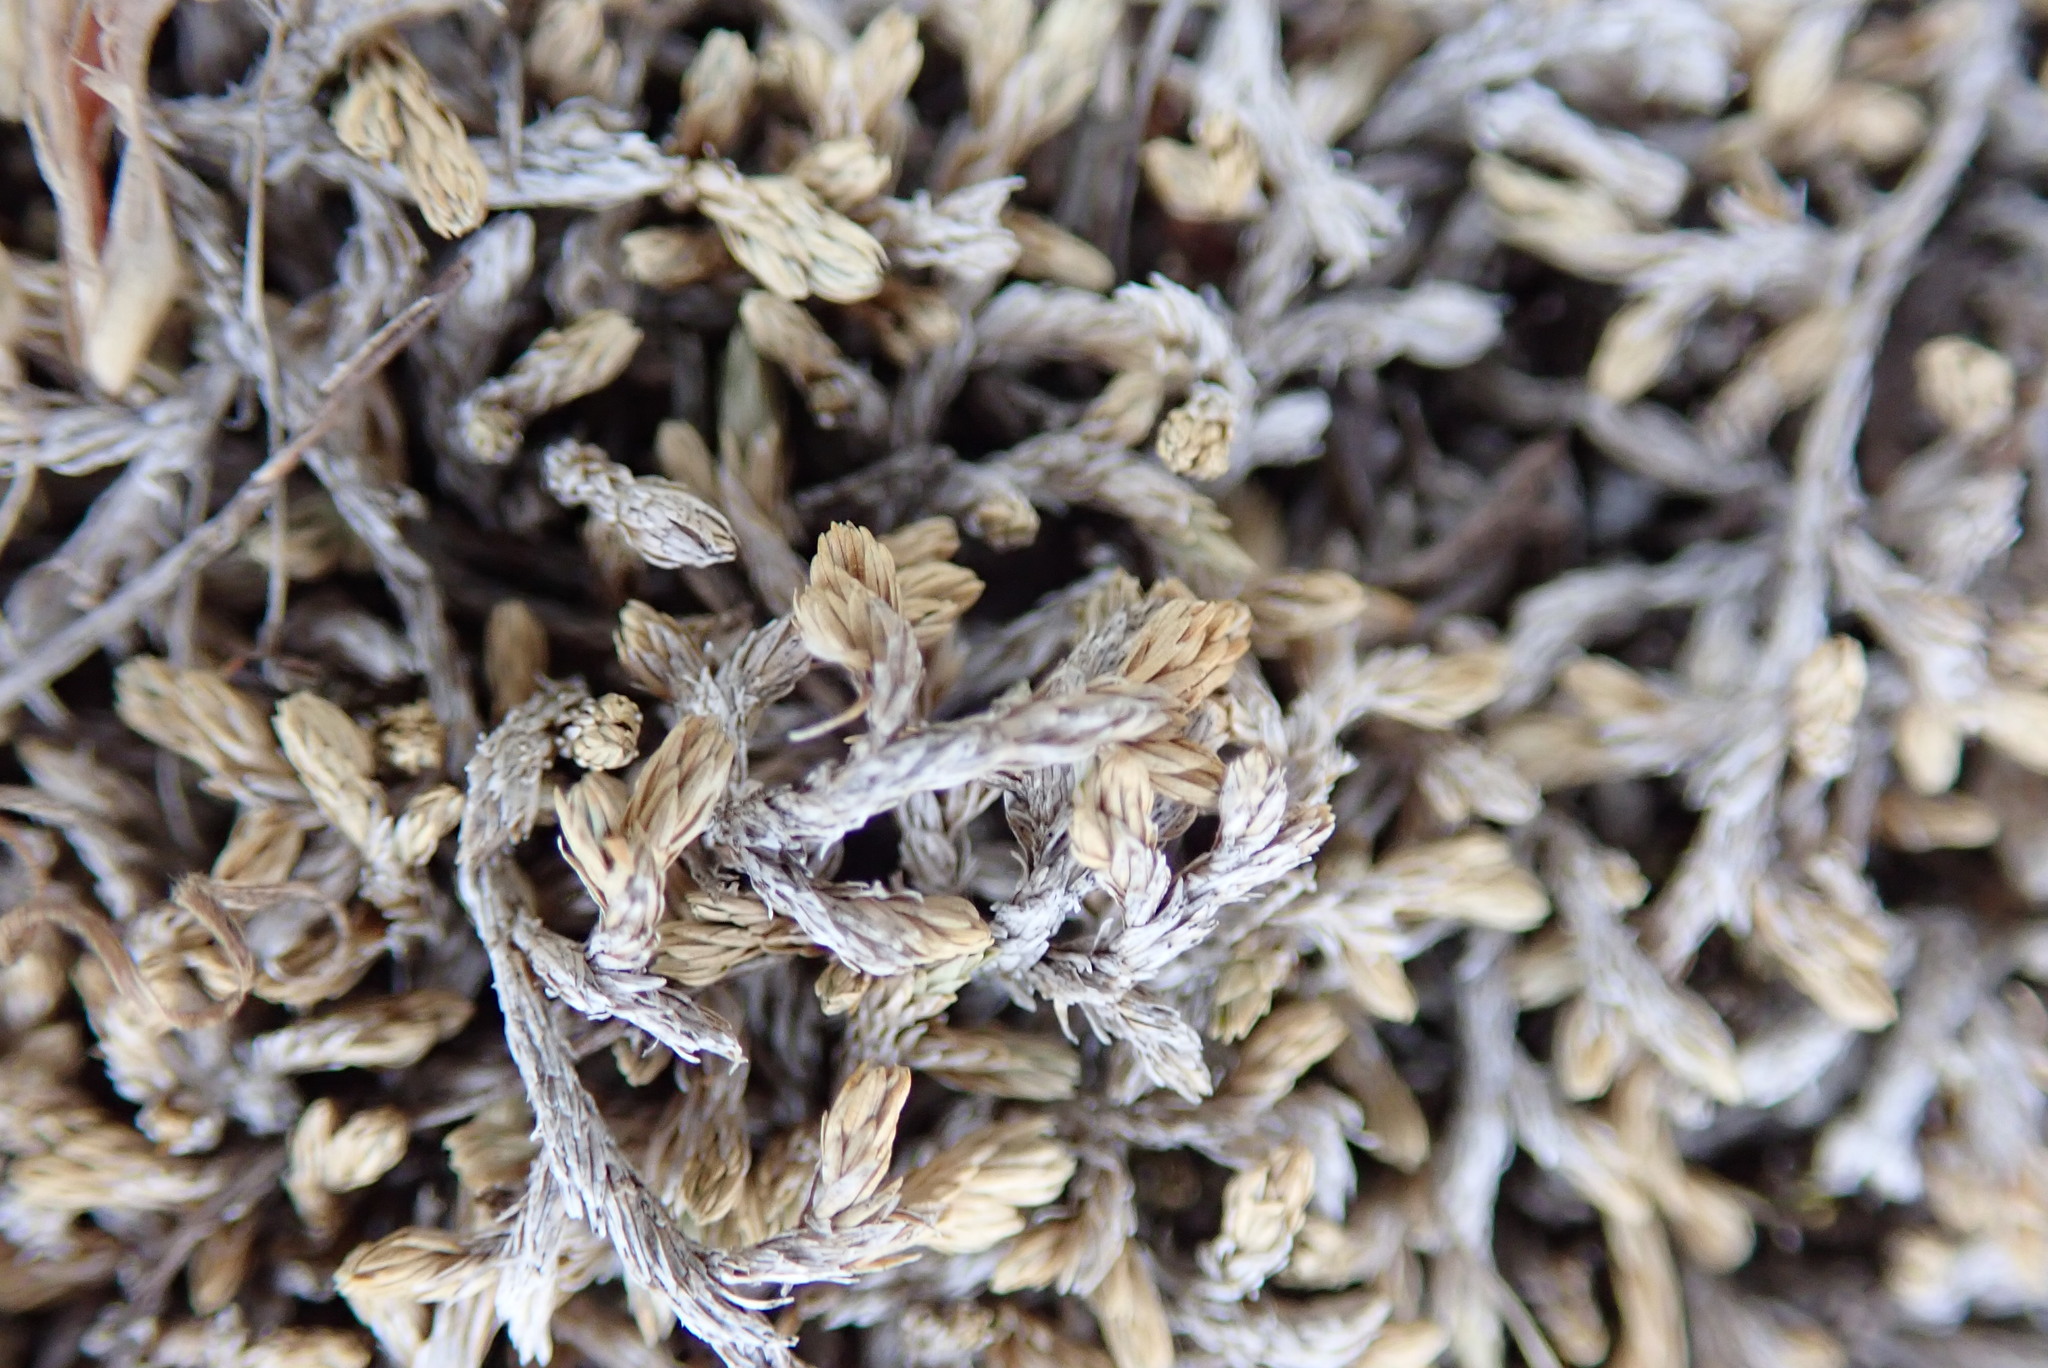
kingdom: Plantae
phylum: Tracheophyta
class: Lycopodiopsida
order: Selaginellales
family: Selaginellaceae
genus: Selaginella
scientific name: Selaginella cinerascens
